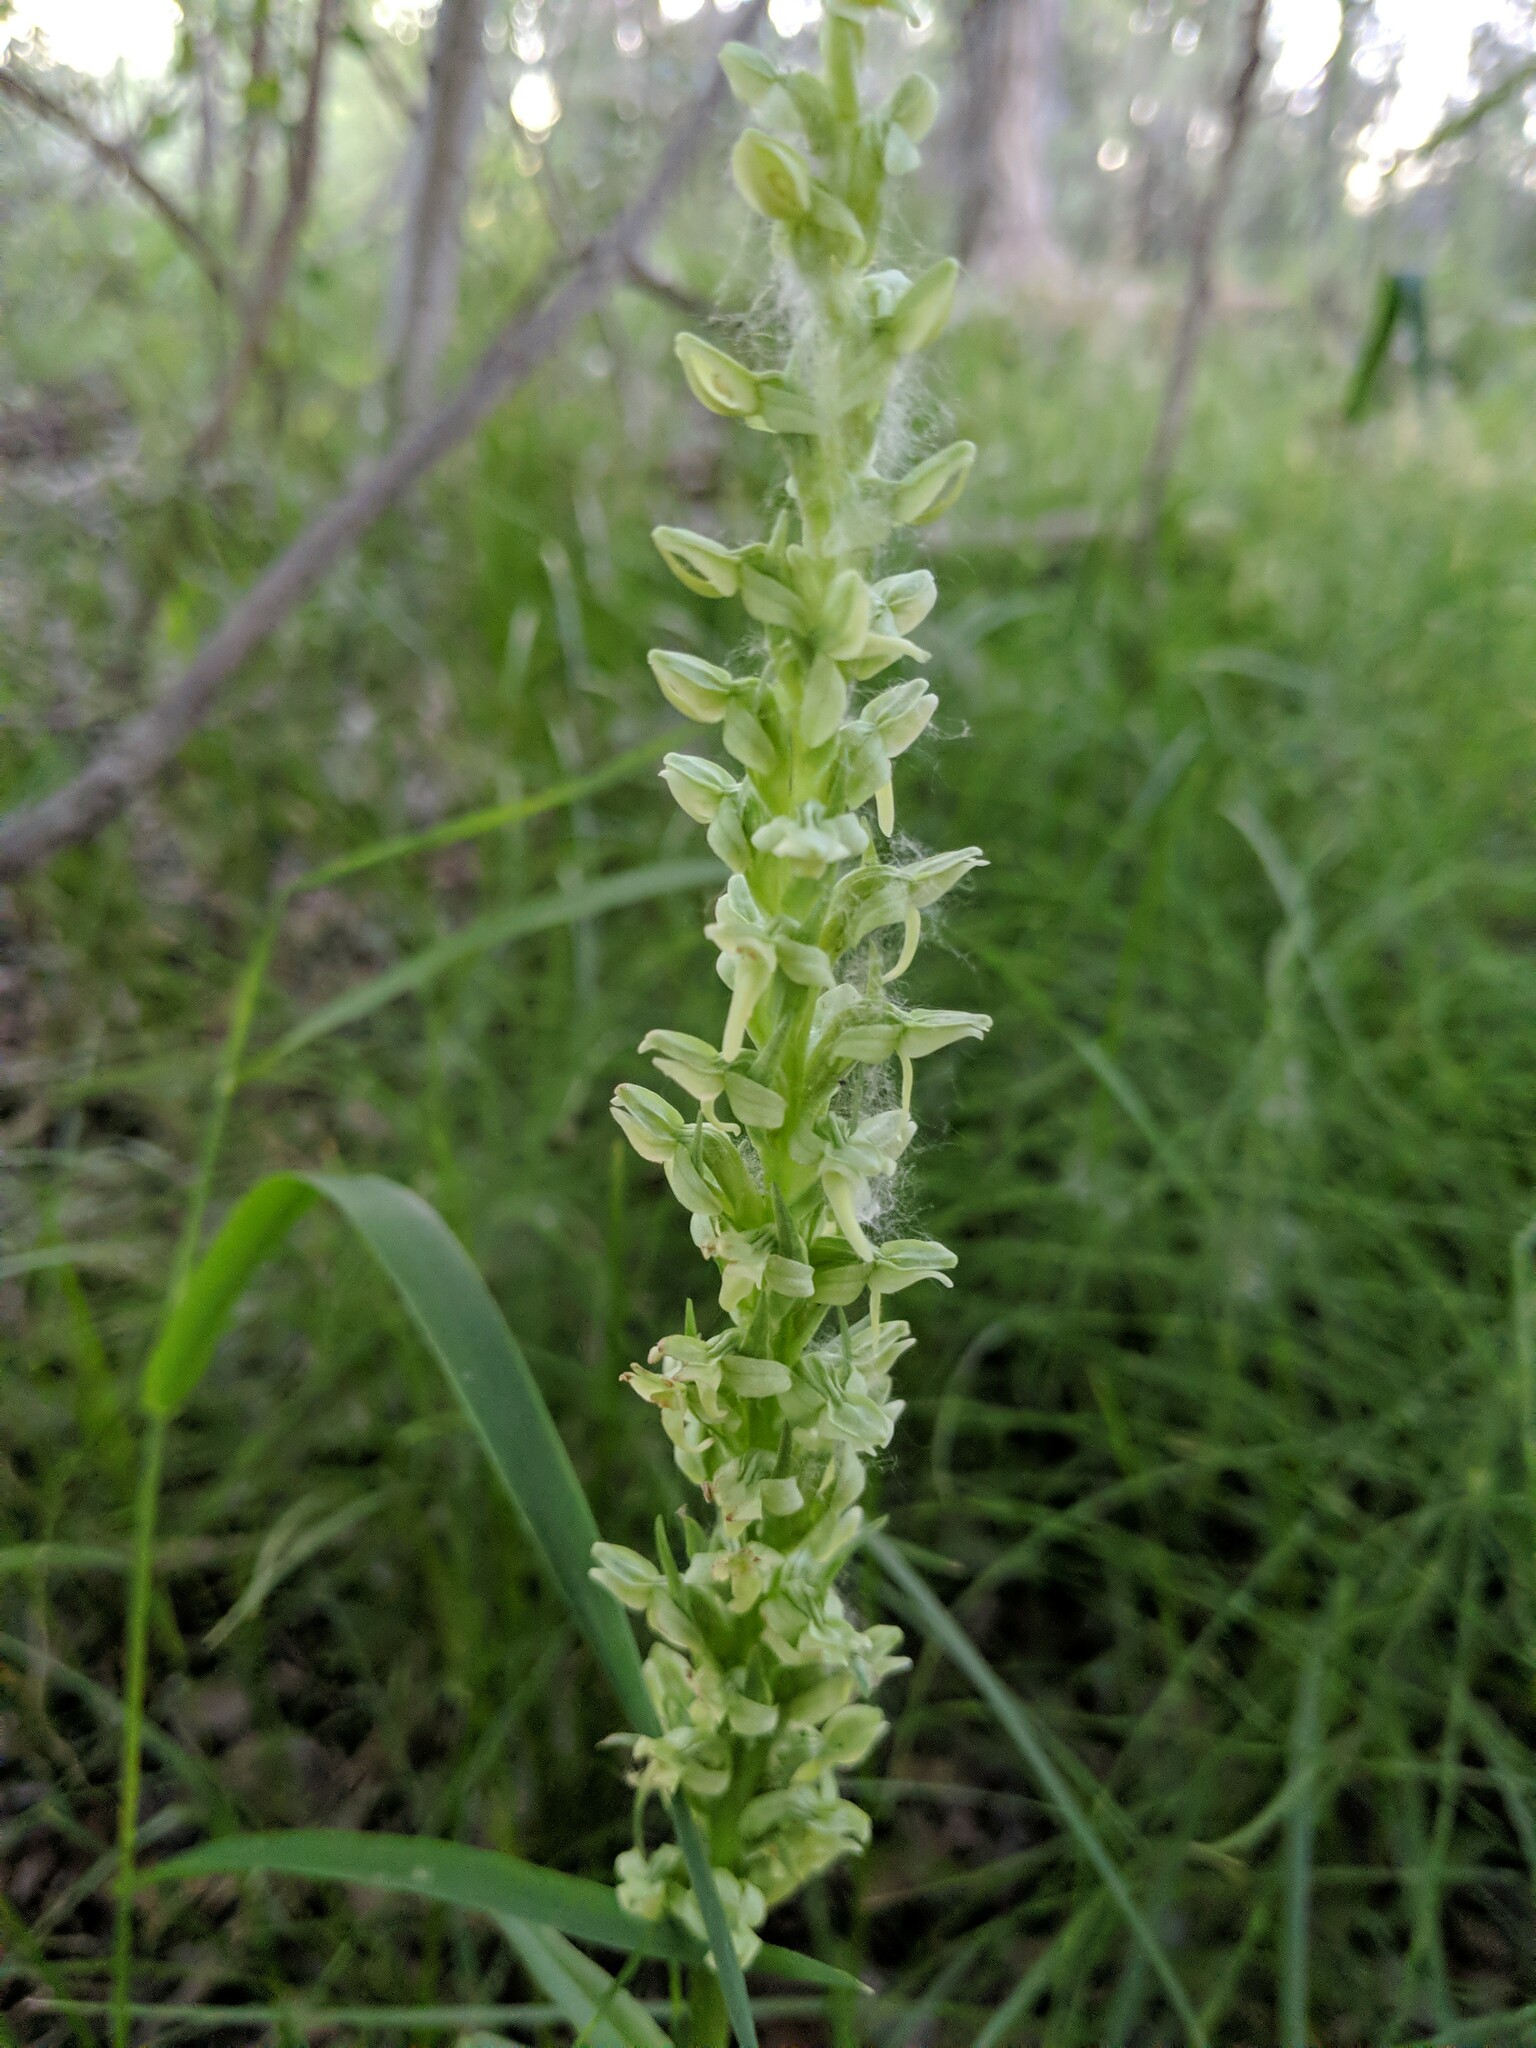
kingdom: Plantae
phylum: Tracheophyta
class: Liliopsida
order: Asparagales
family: Orchidaceae
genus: Platanthera
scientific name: Platanthera huronensis
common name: Fragrant green orchid
